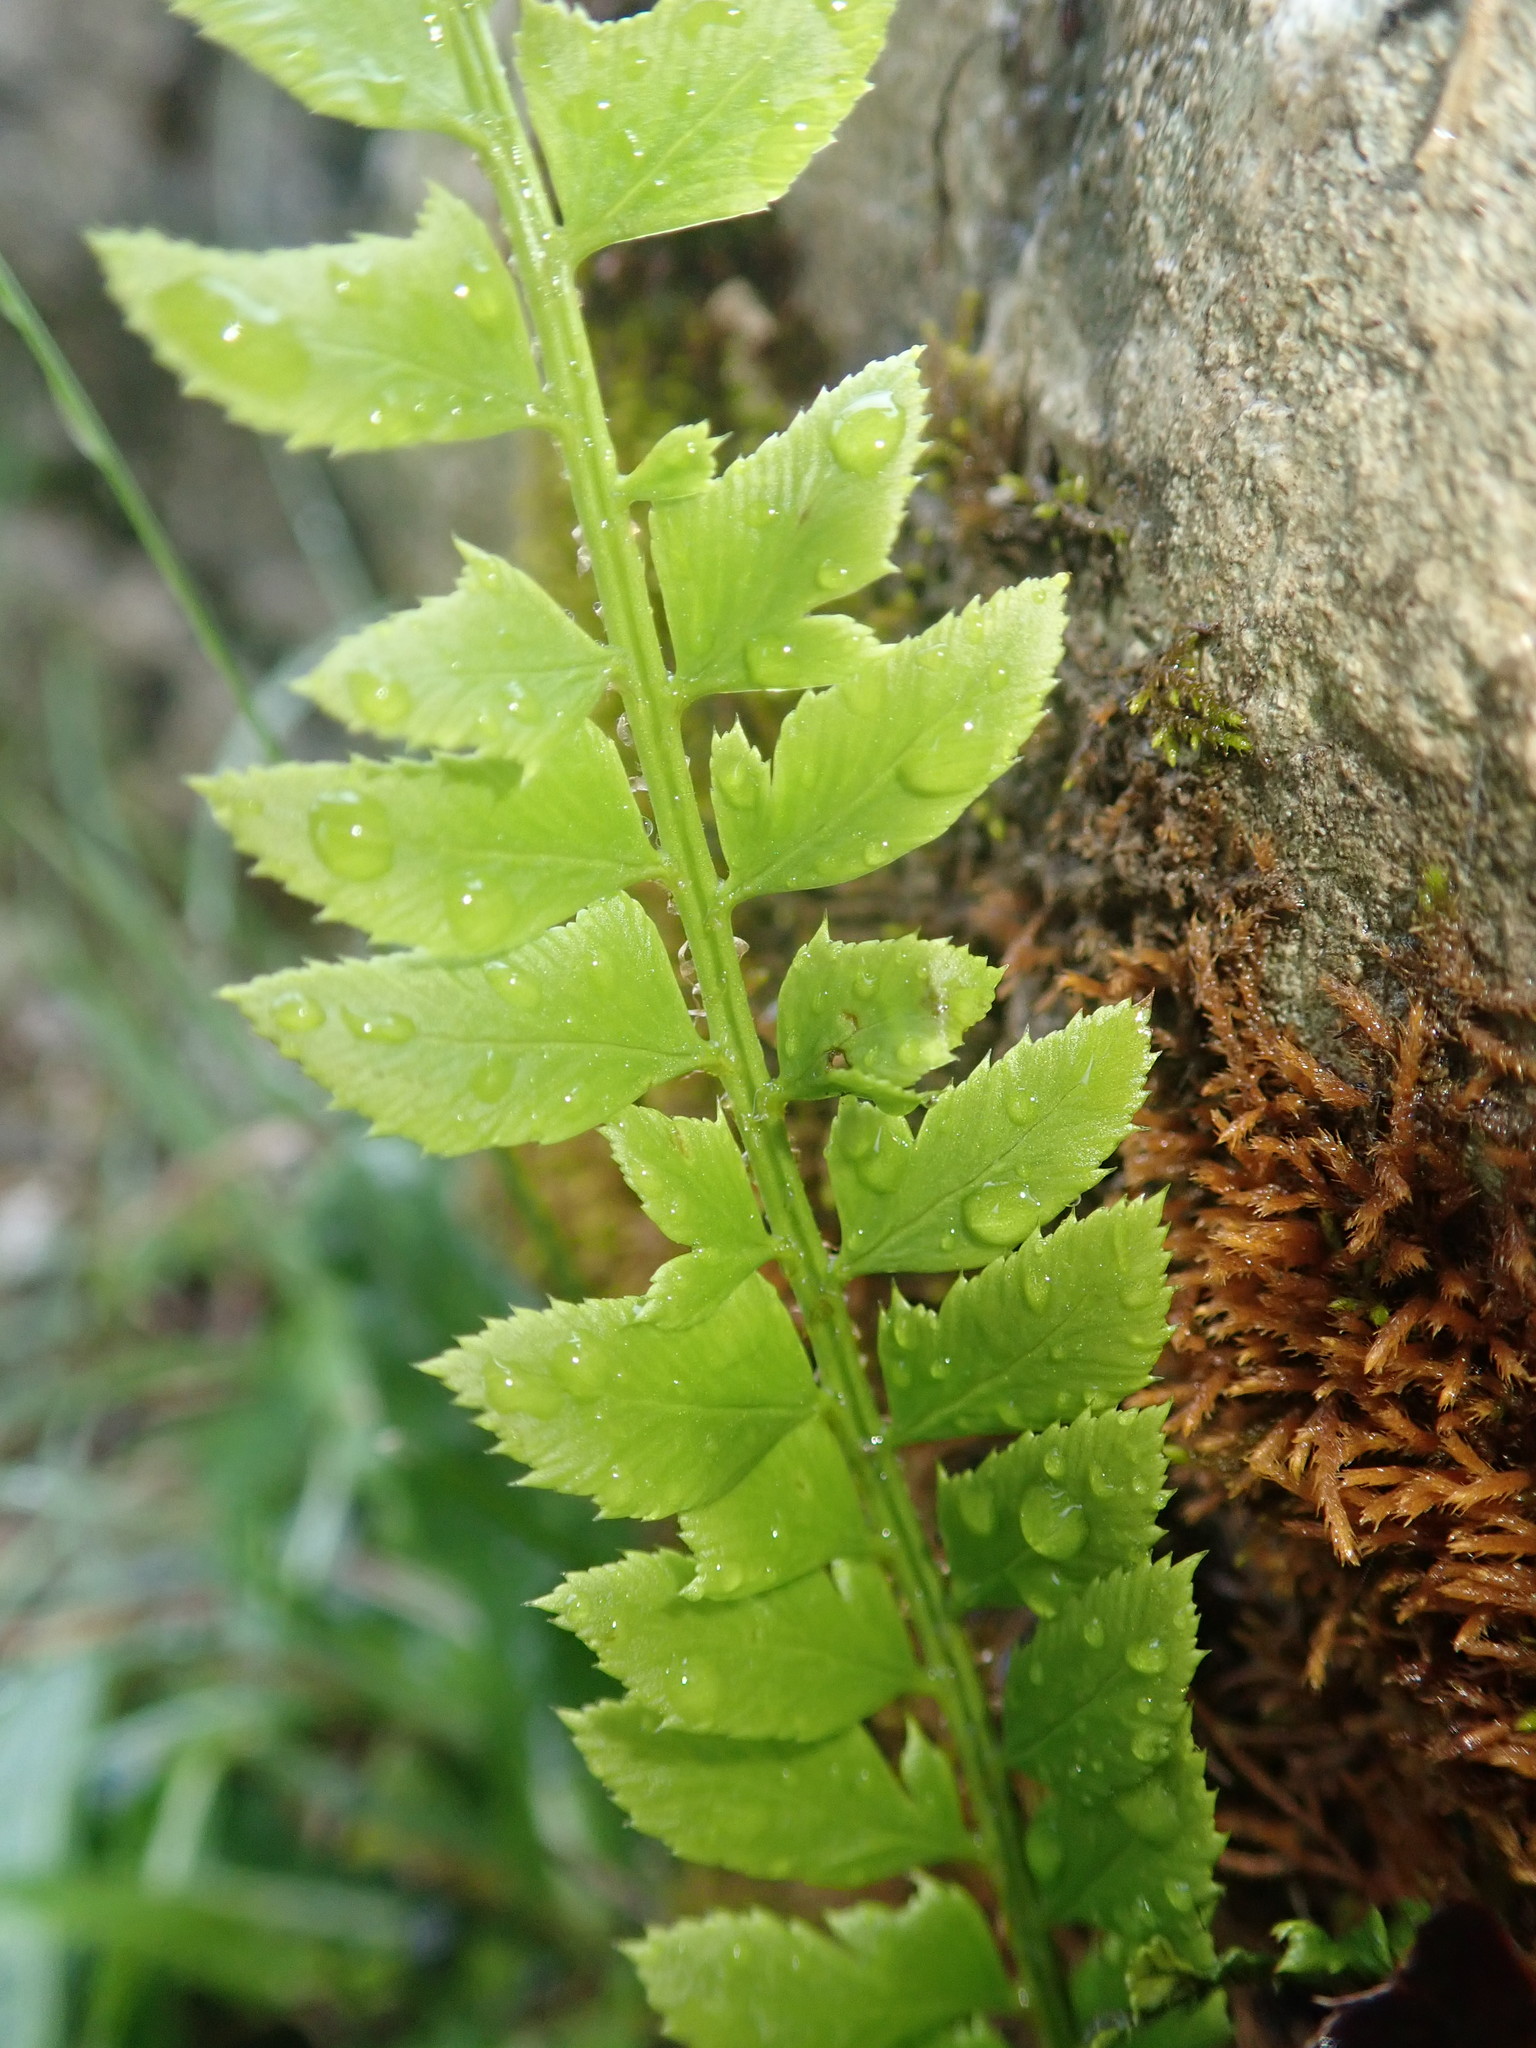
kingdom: Plantae
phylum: Tracheophyta
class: Polypodiopsida
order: Polypodiales
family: Dryopteridaceae
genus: Polystichum
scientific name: Polystichum lonchitis
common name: Holly fern
